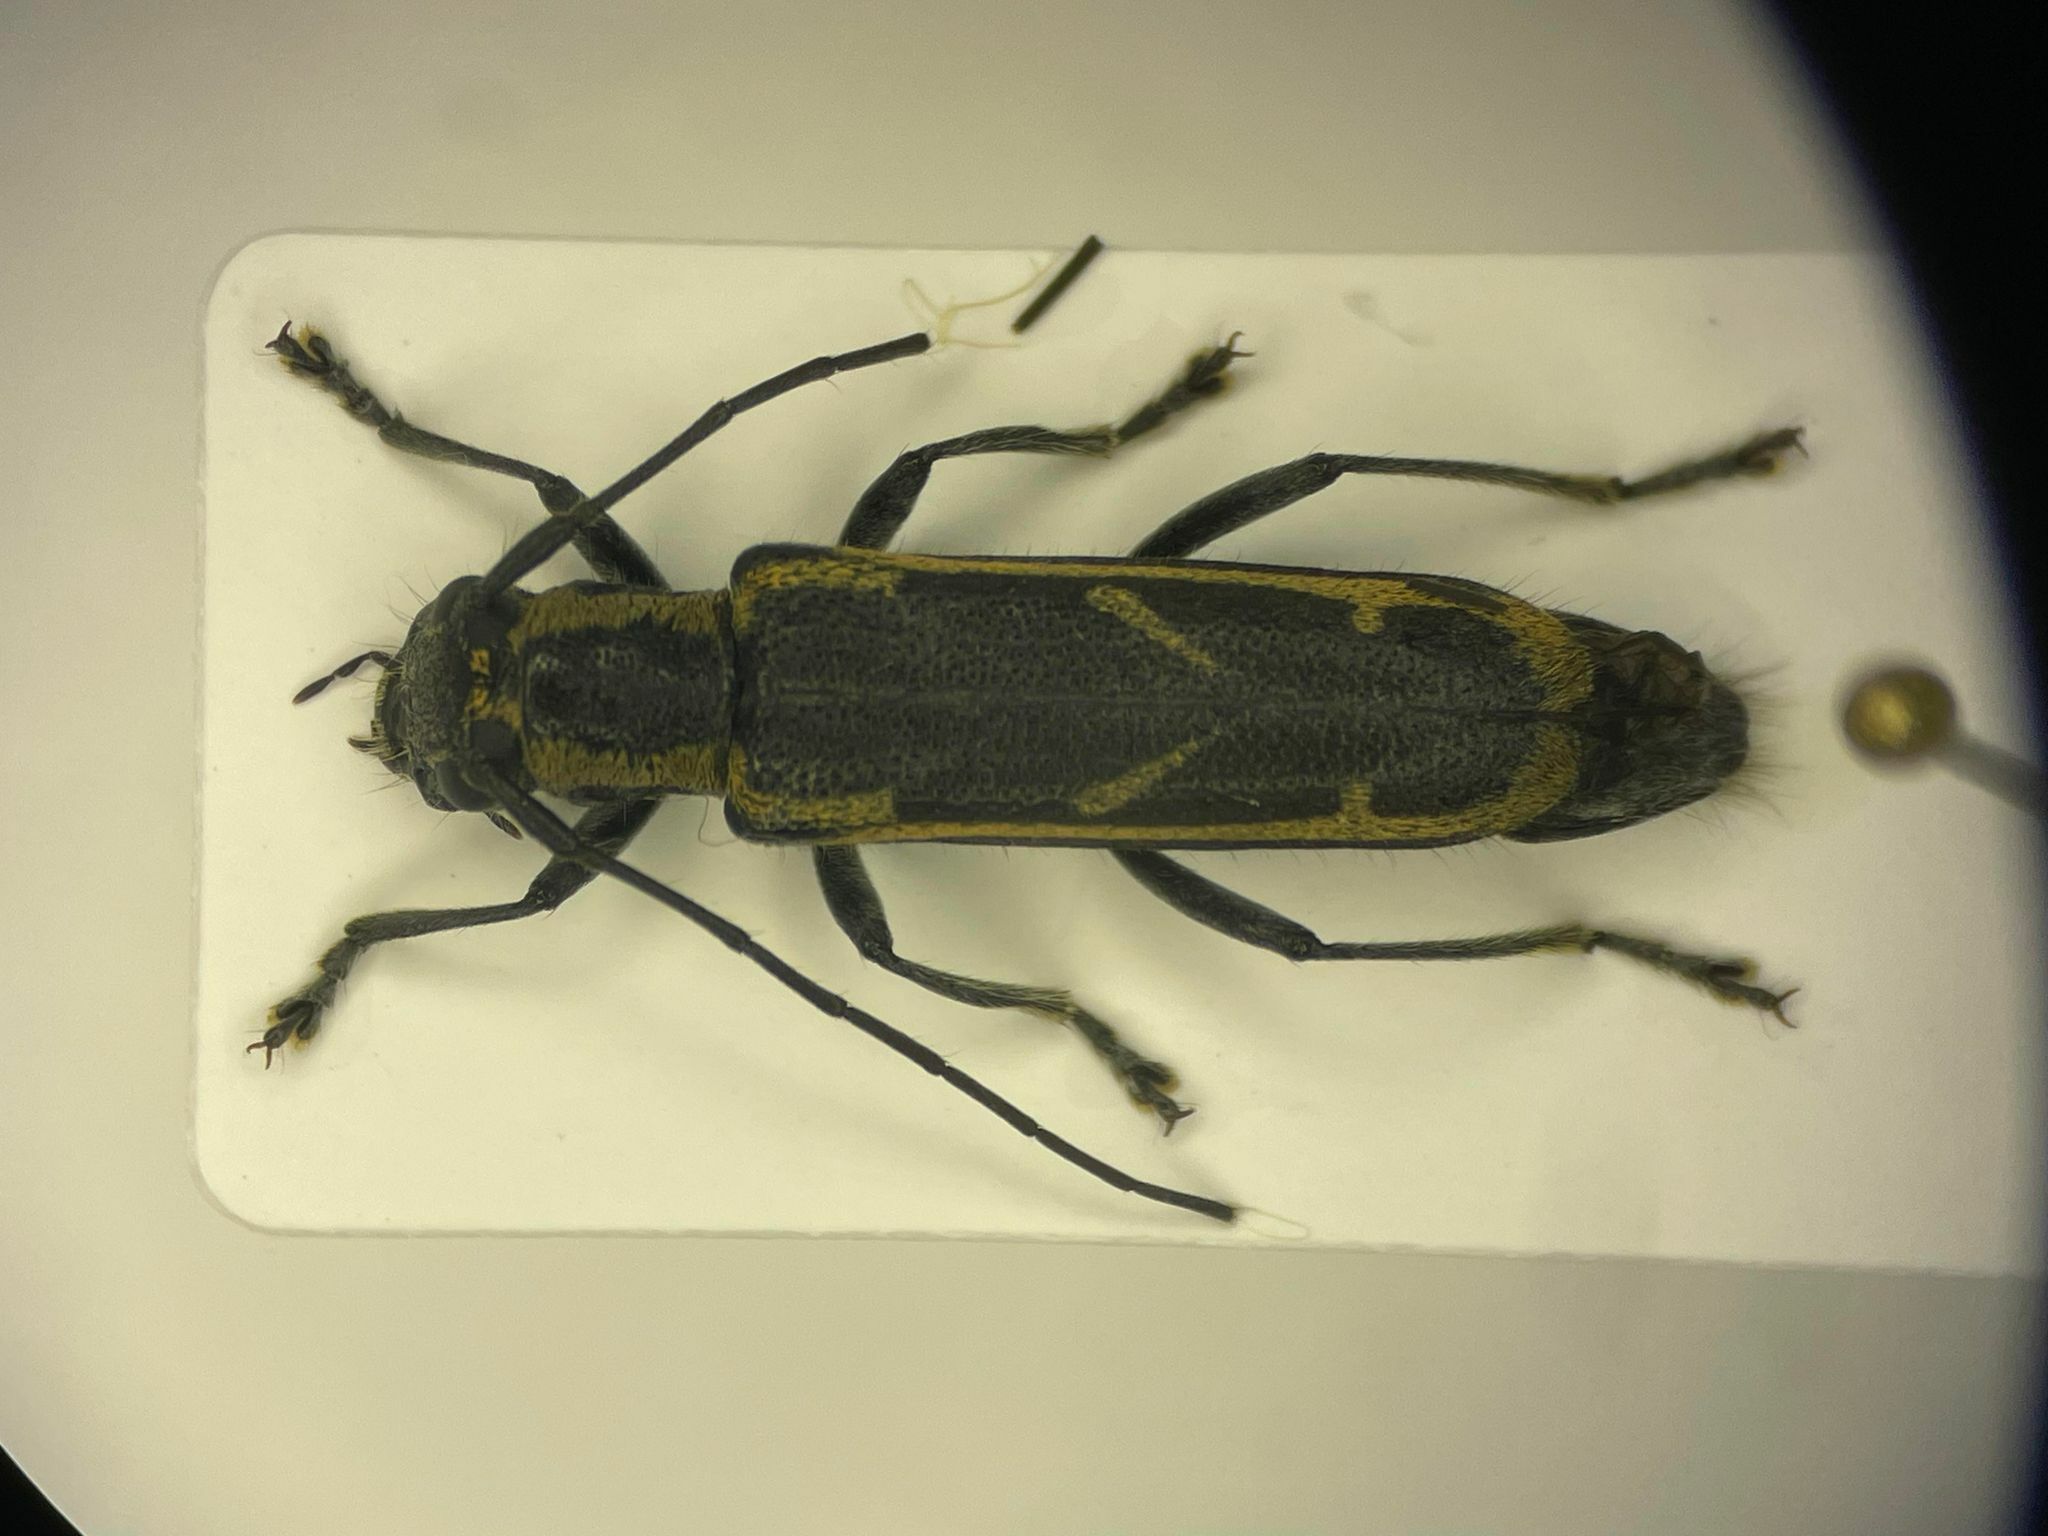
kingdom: Animalia
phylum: Arthropoda
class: Insecta
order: Coleoptera
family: Cerambycidae
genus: Saperda
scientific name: Saperda imitans
